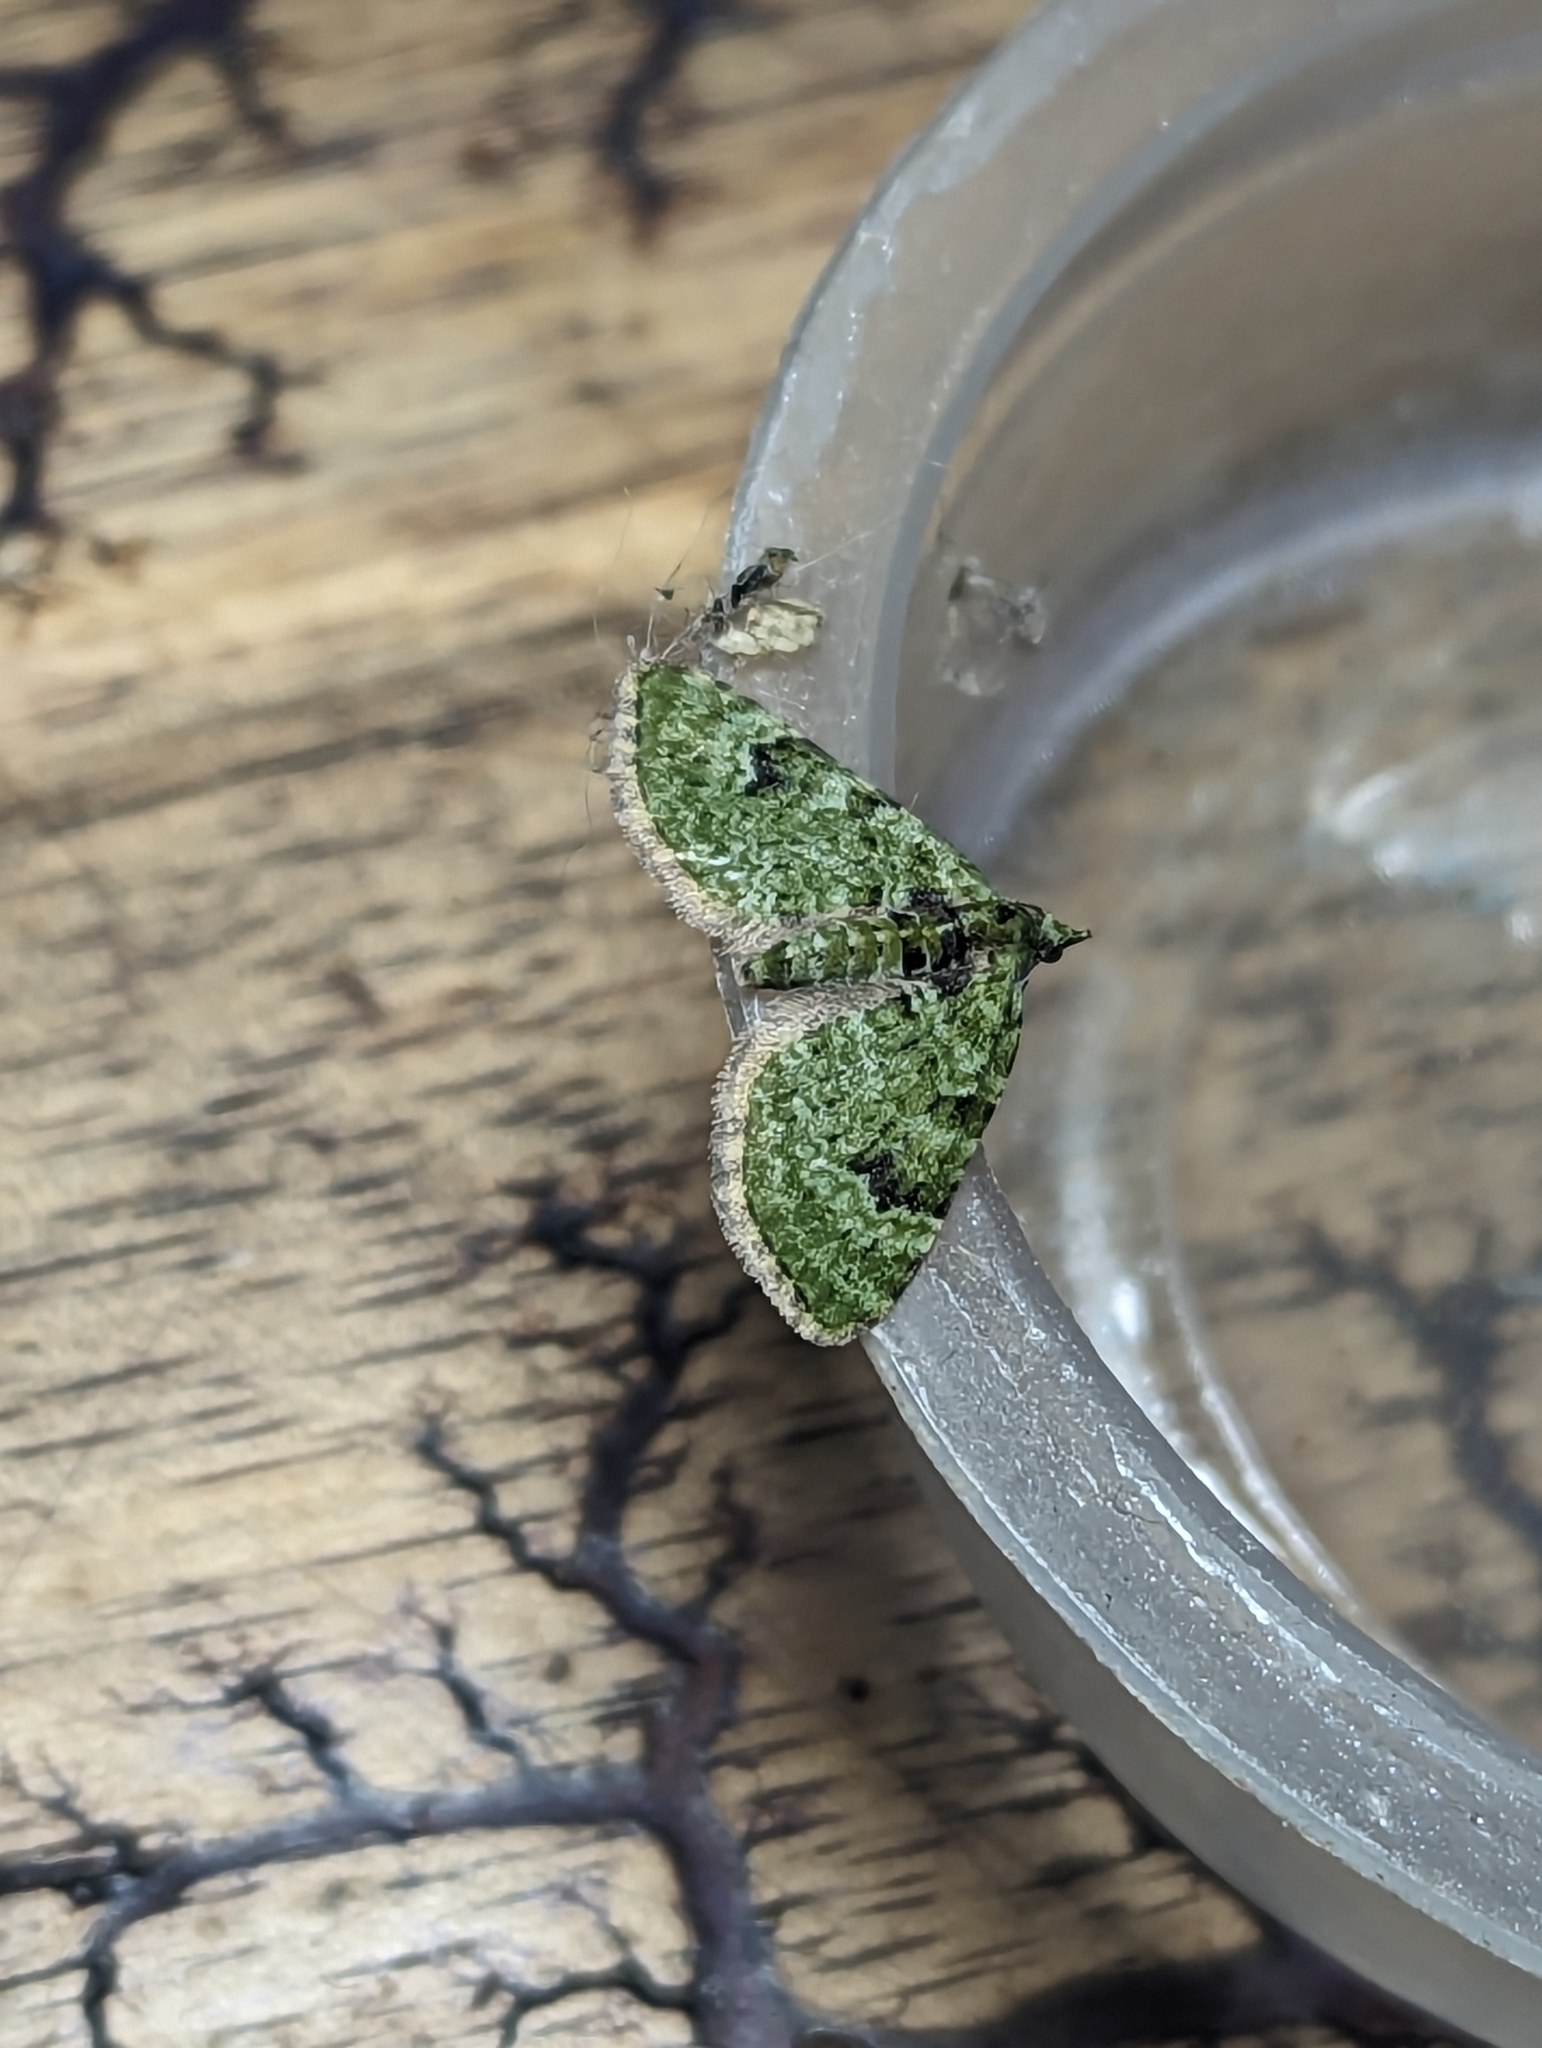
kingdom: Animalia
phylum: Arthropoda
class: Insecta
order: Lepidoptera
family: Geometridae
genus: Chloroclystis
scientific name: Chloroclystis v-ata
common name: V-pug
